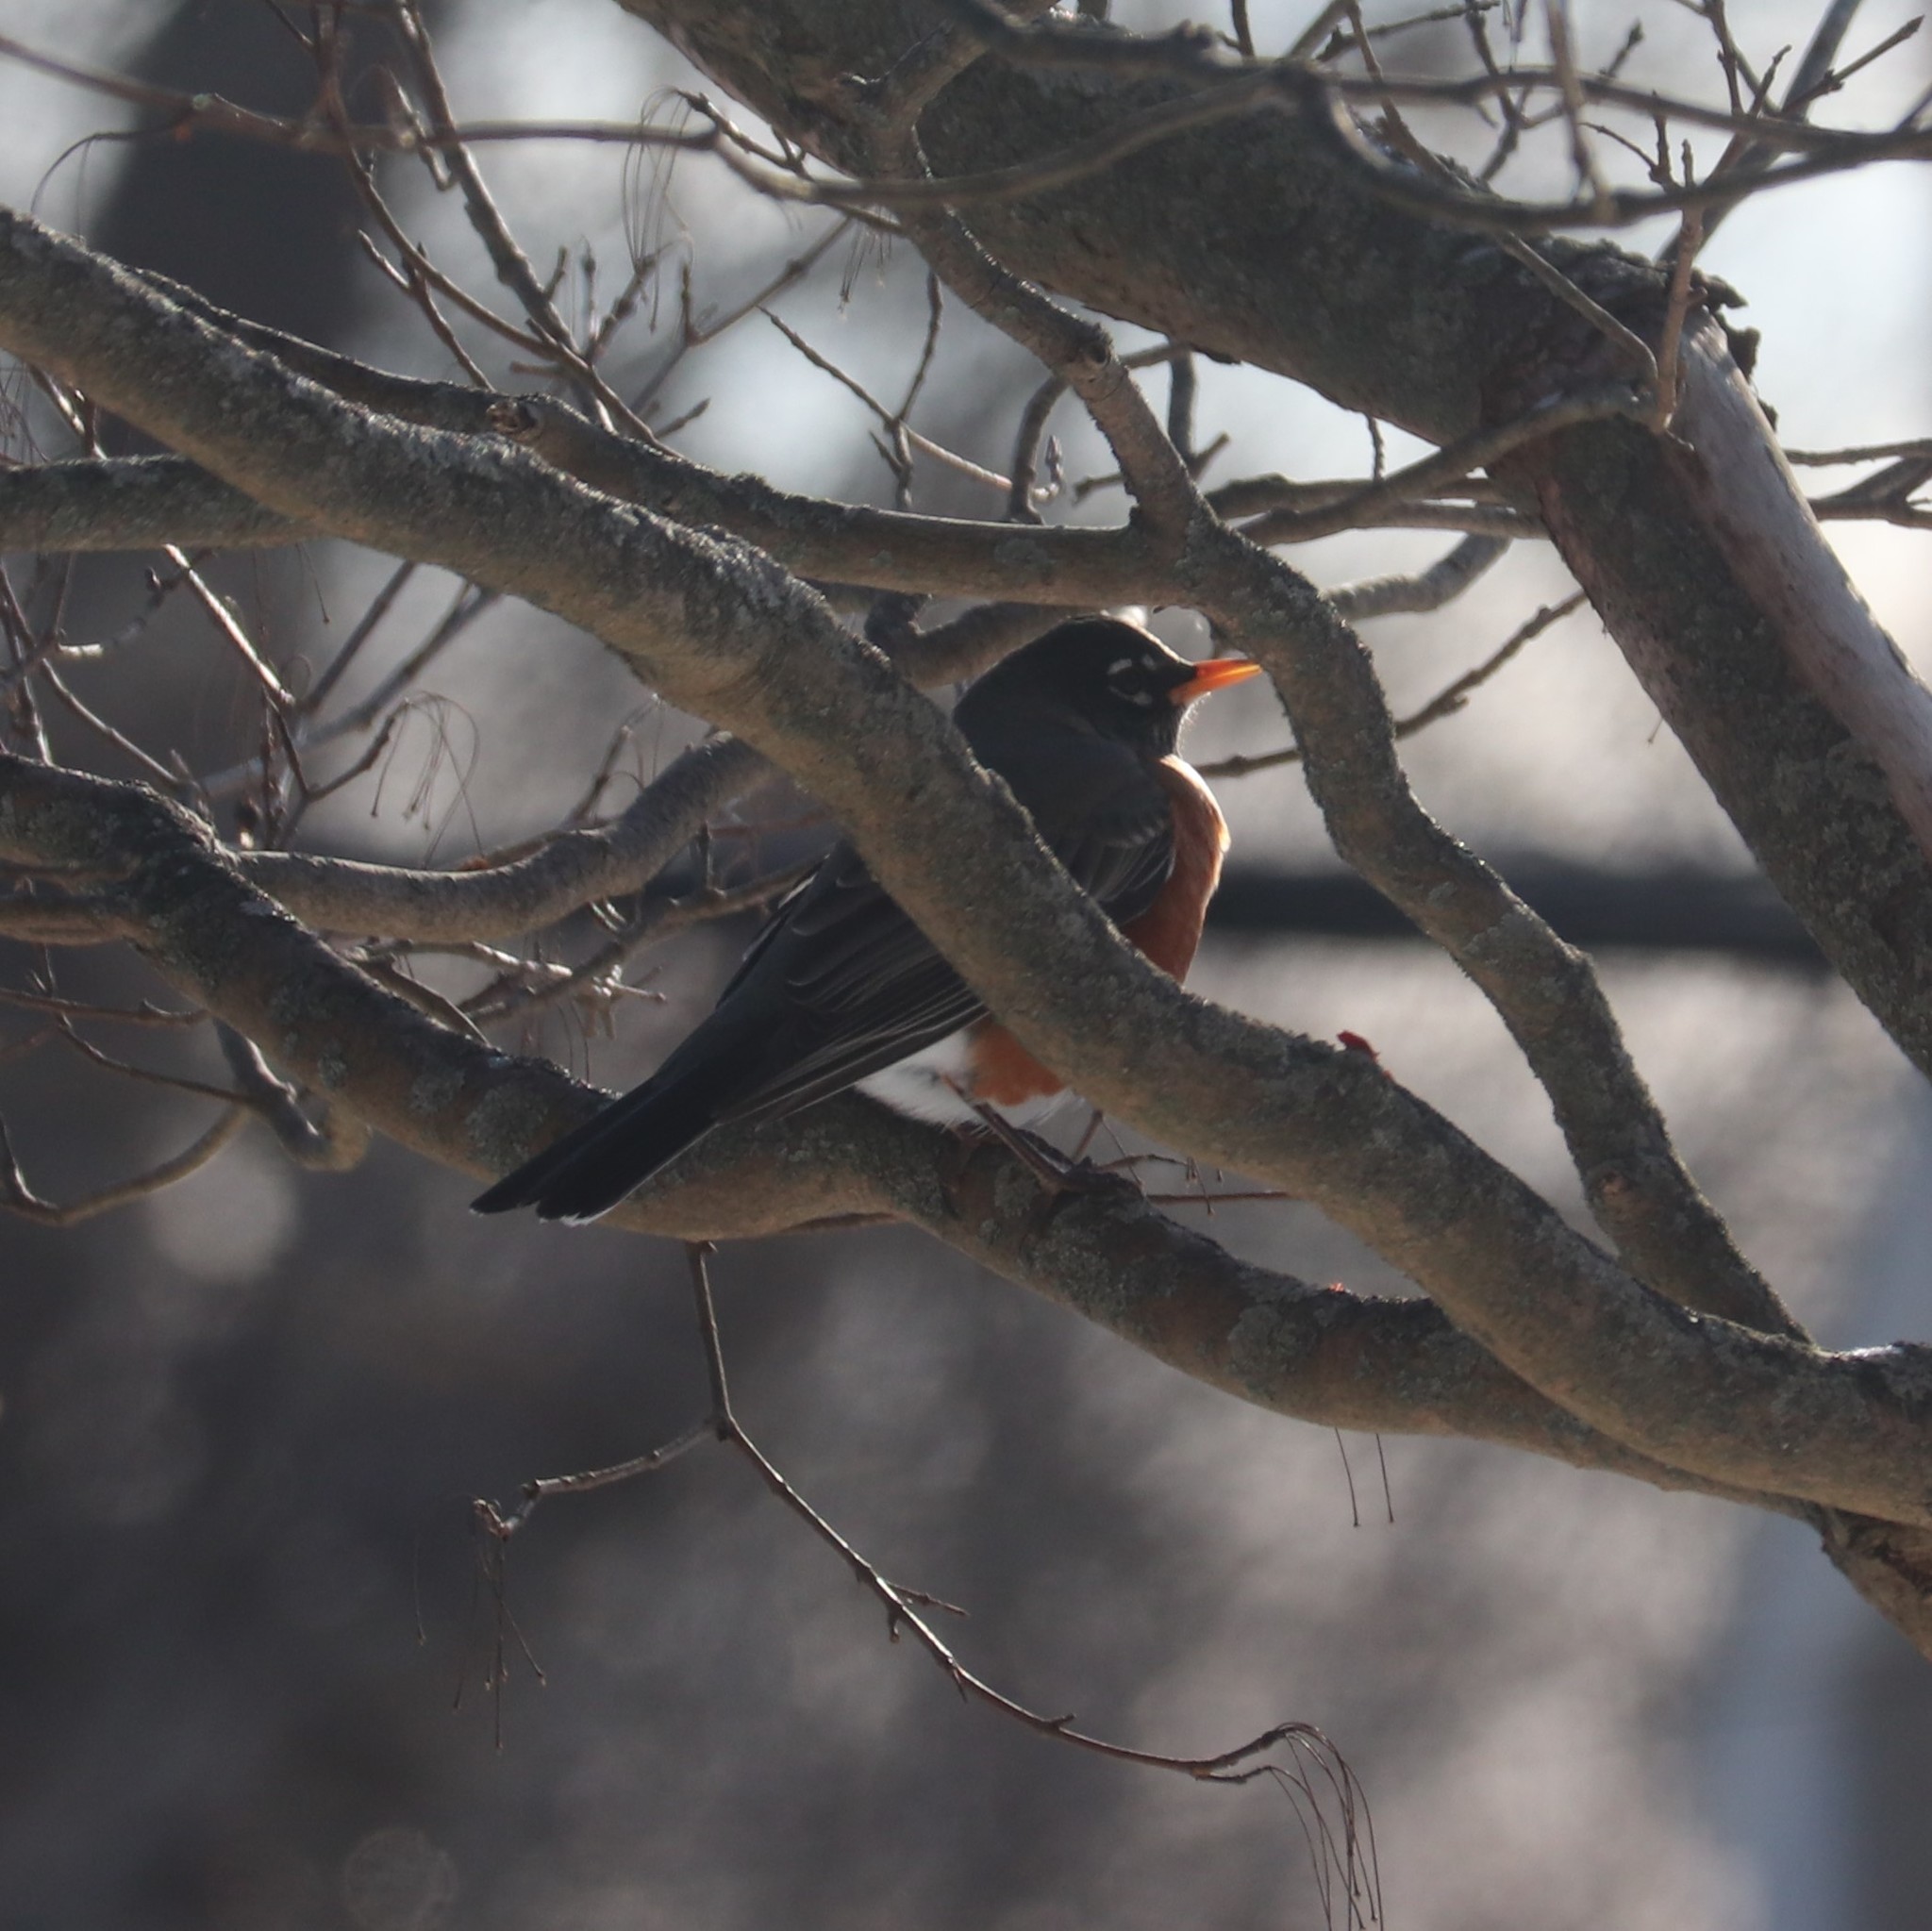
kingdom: Animalia
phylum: Chordata
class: Aves
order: Passeriformes
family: Turdidae
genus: Turdus
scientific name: Turdus migratorius
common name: American robin
